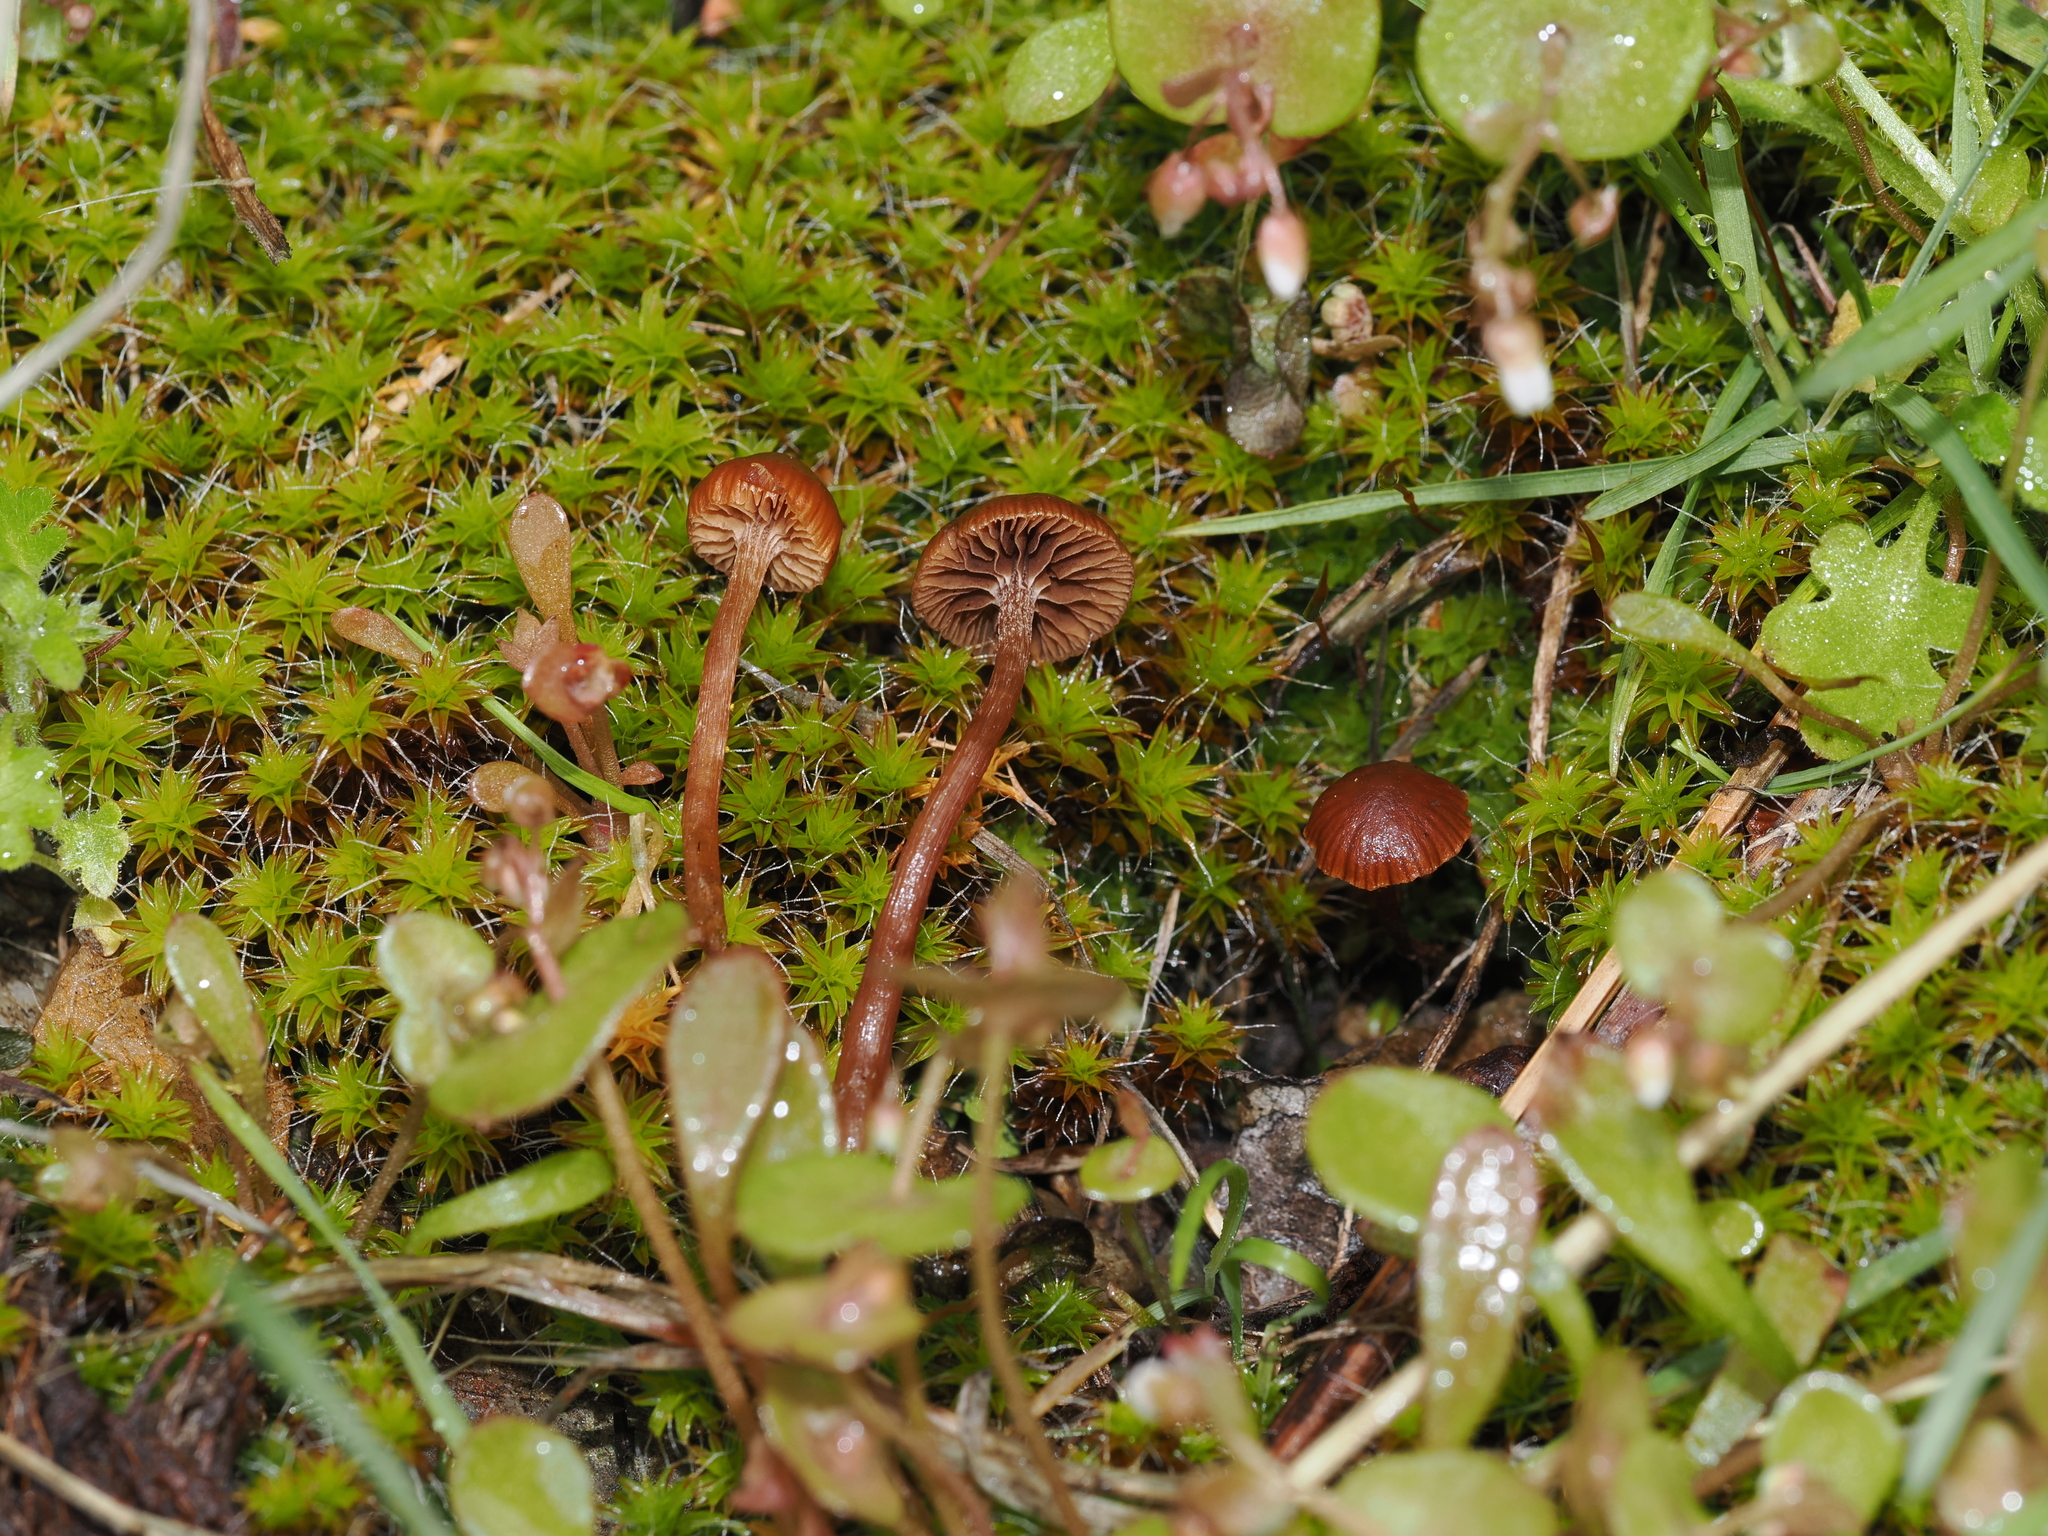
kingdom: Fungi
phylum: Basidiomycota
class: Agaricomycetes
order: Agaricales
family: Strophariaceae
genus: Deconica
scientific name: Deconica montana
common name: Mountain moss deconica
